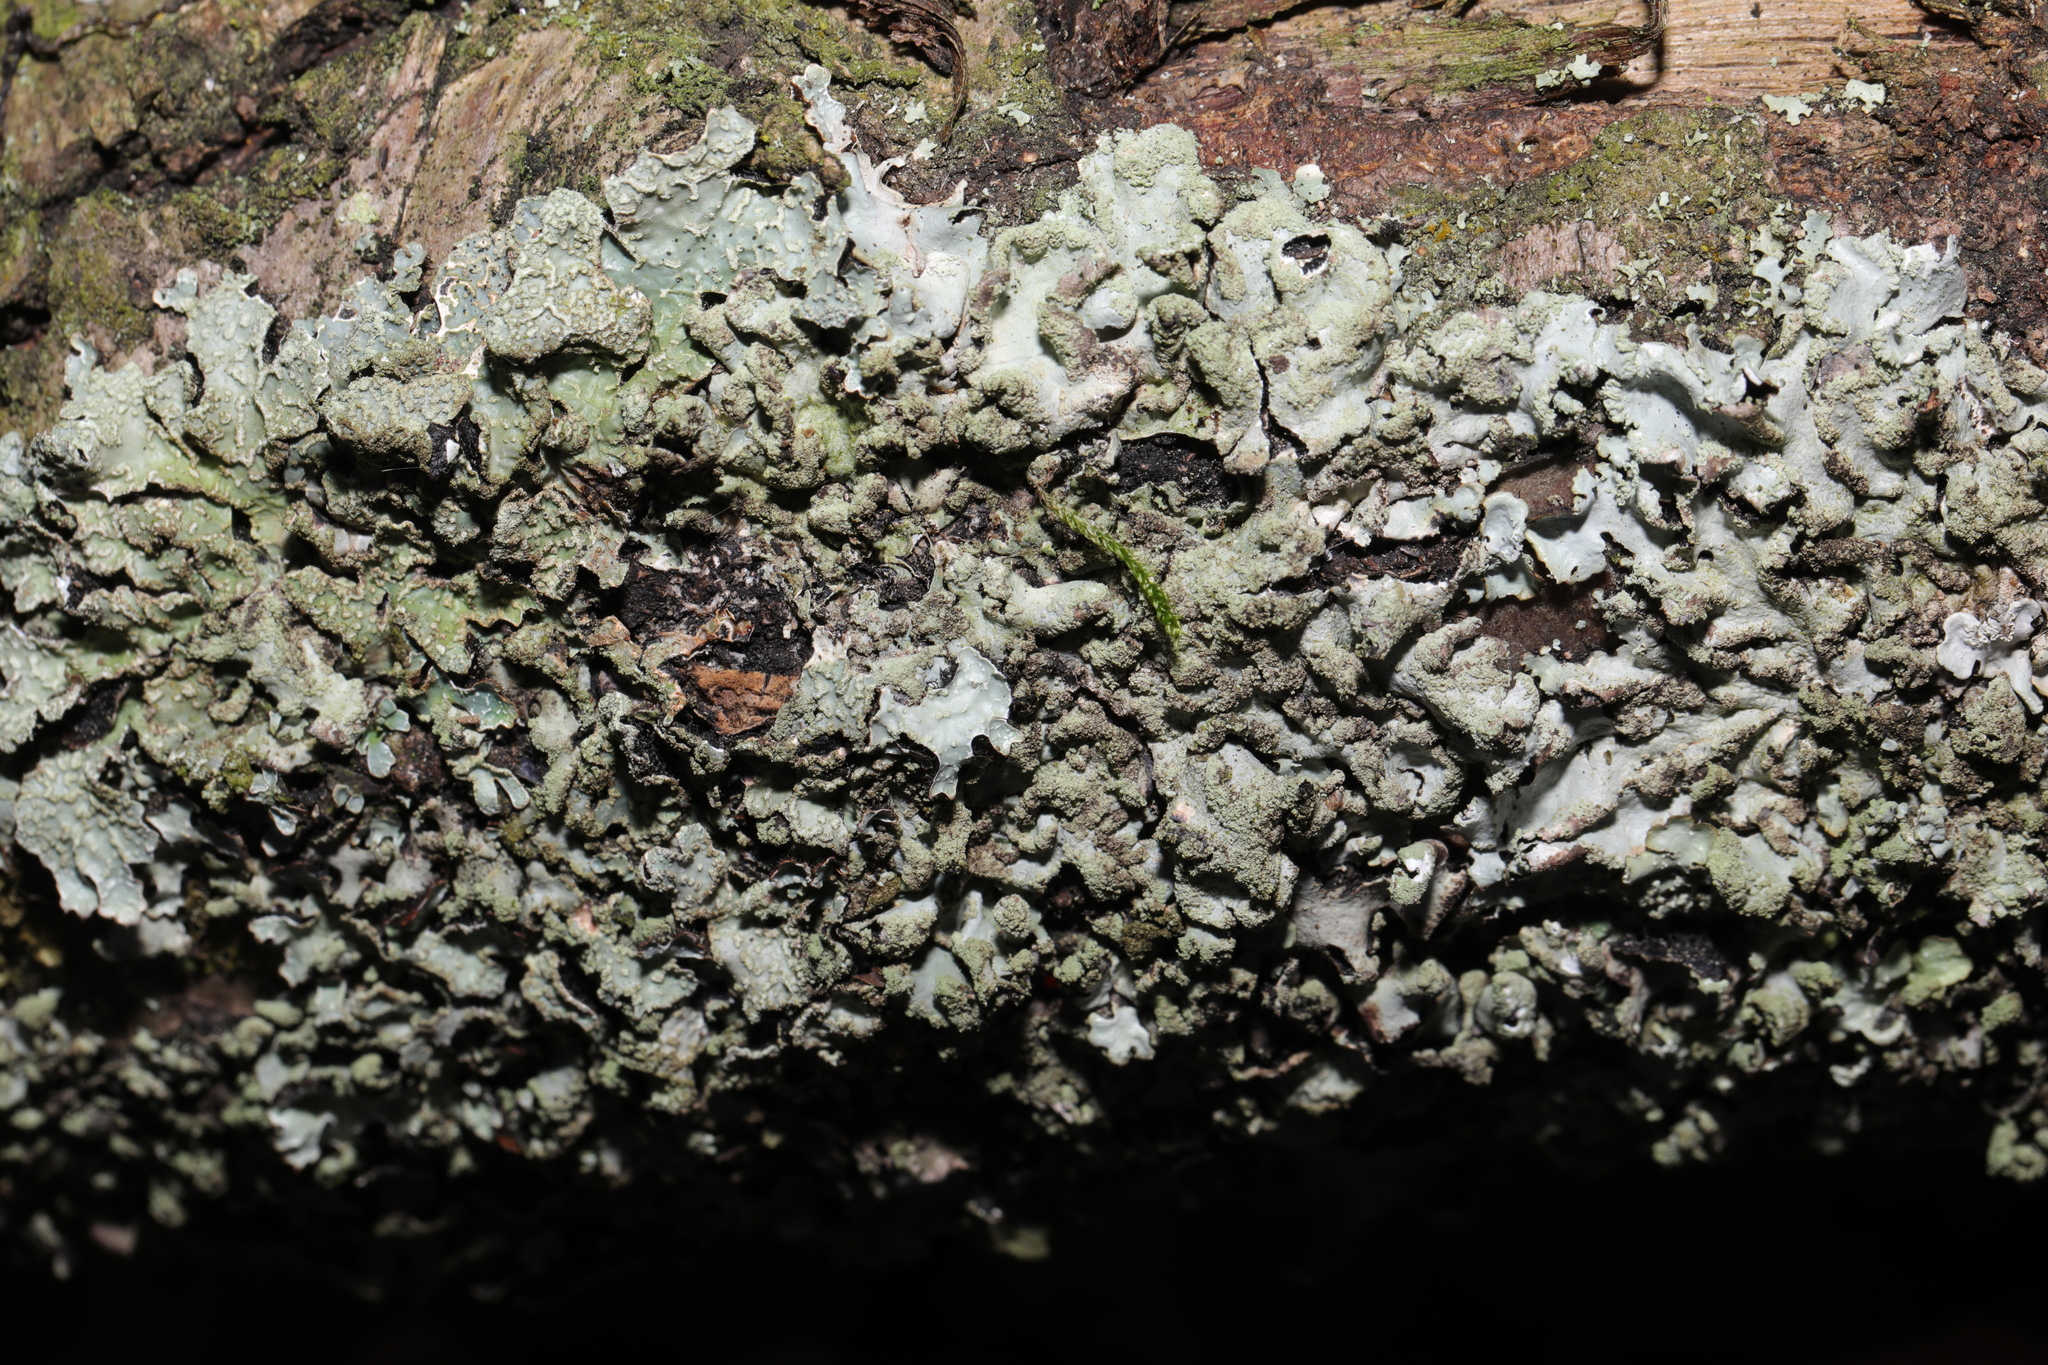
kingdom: Fungi
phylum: Ascomycota
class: Lecanoromycetes
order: Lecanorales
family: Parmeliaceae
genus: Parmelia
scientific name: Parmelia sulcata
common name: Netted shield lichen
